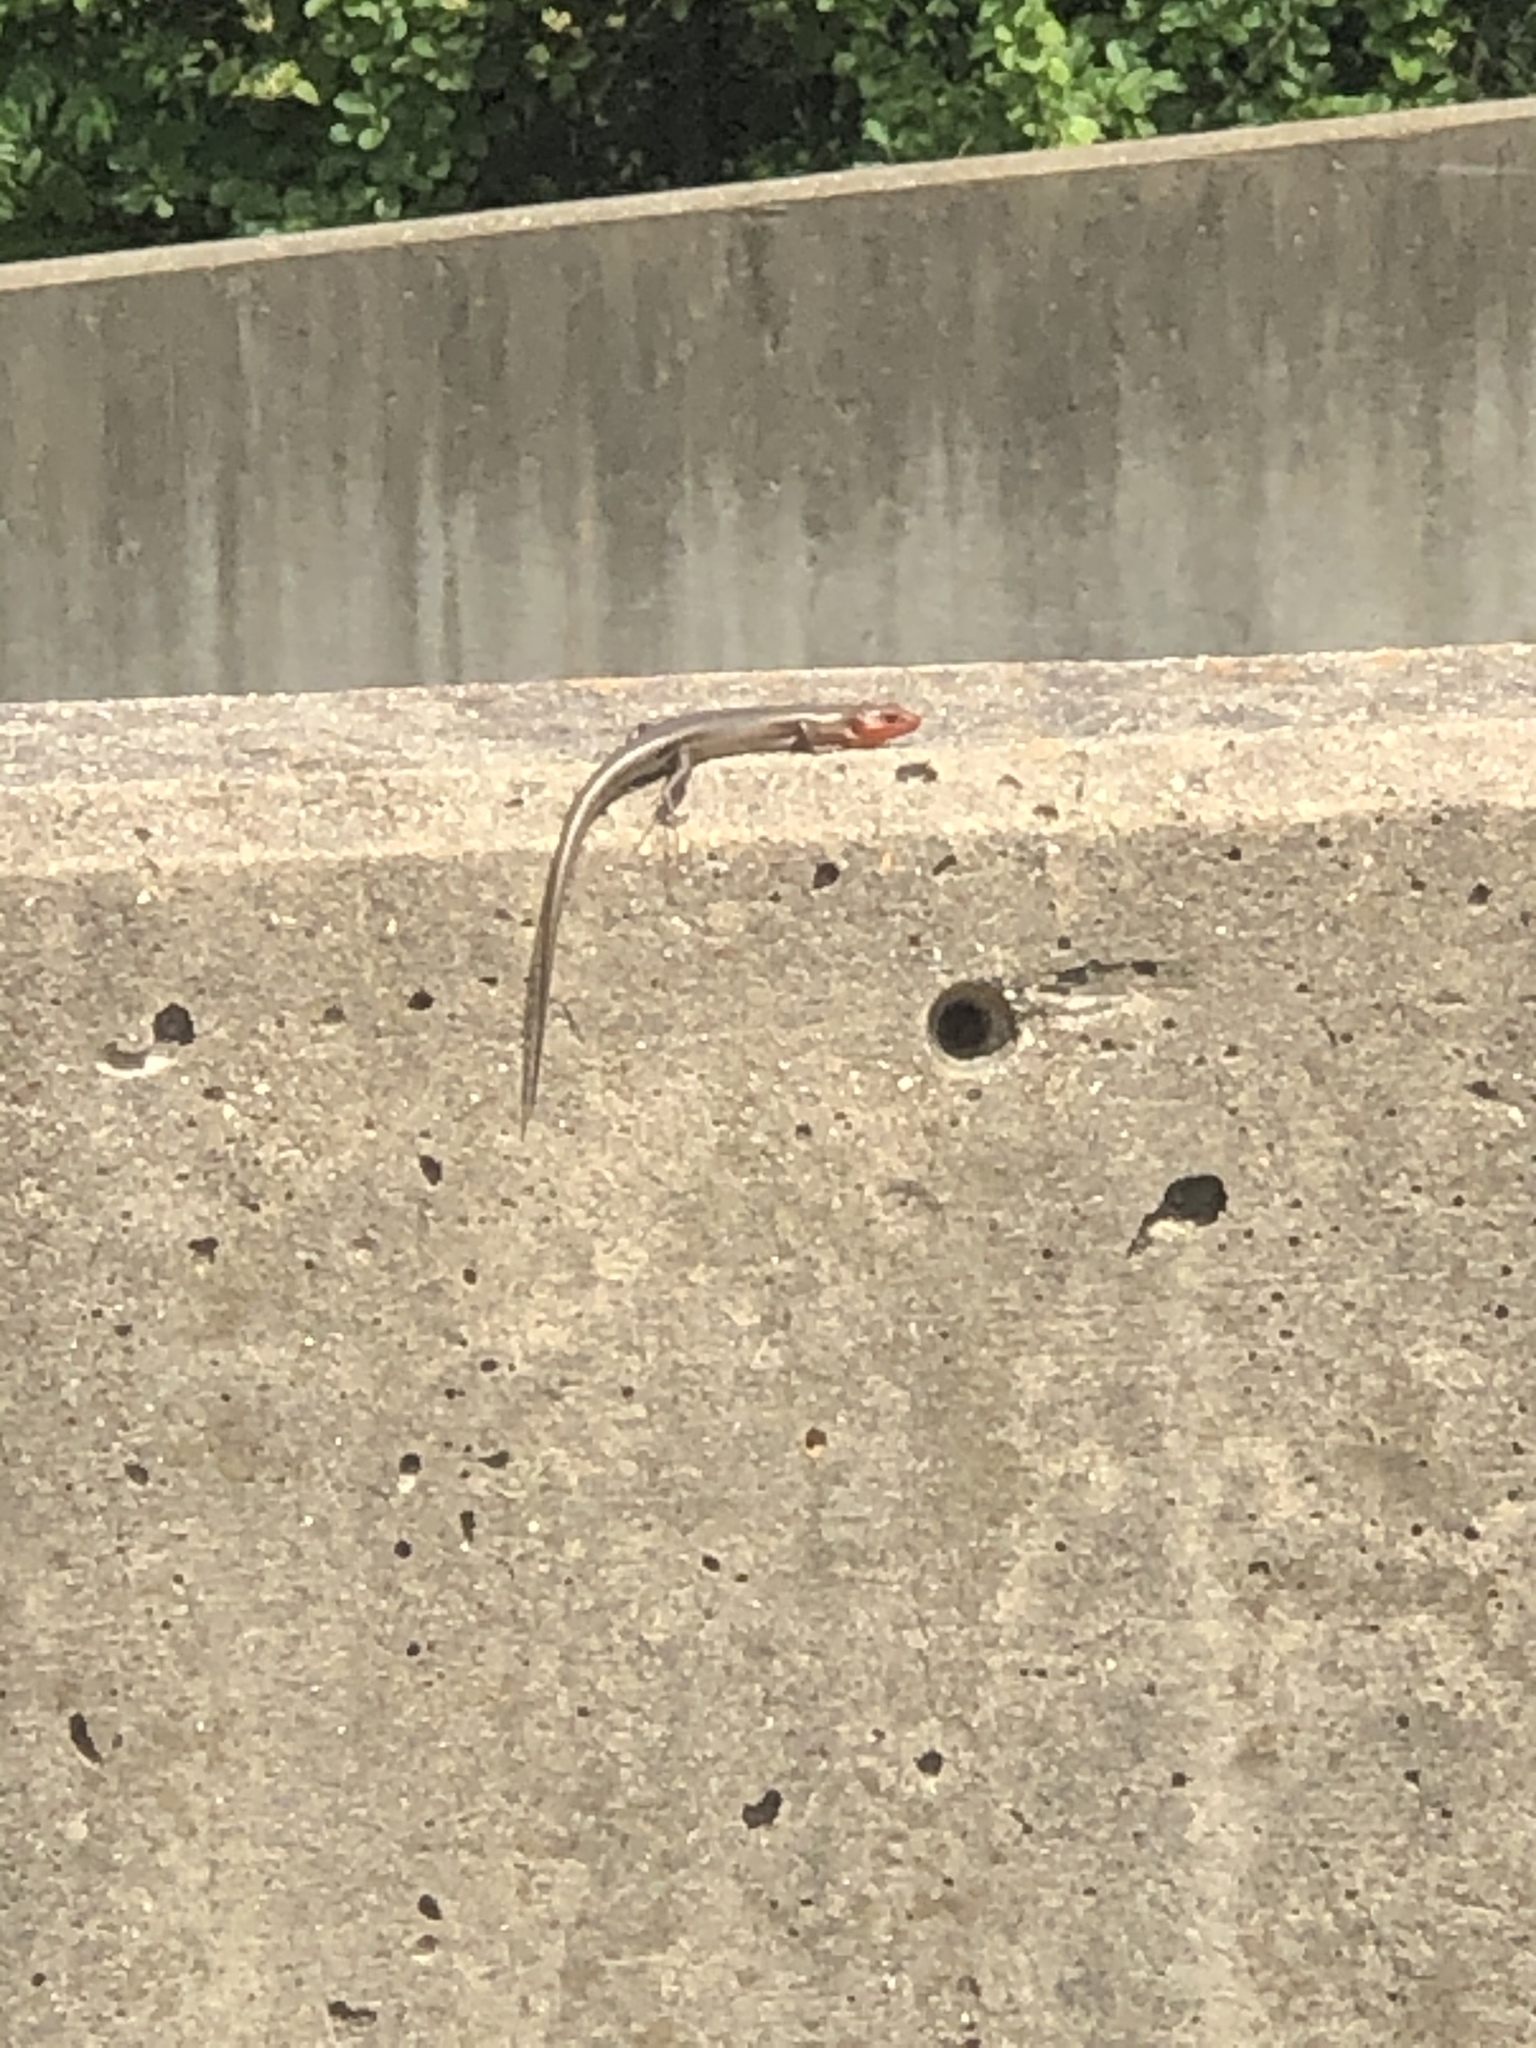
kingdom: Animalia
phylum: Chordata
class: Squamata
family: Scincidae
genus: Plestiodon
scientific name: Plestiodon fasciatus
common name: Five-lined skink
